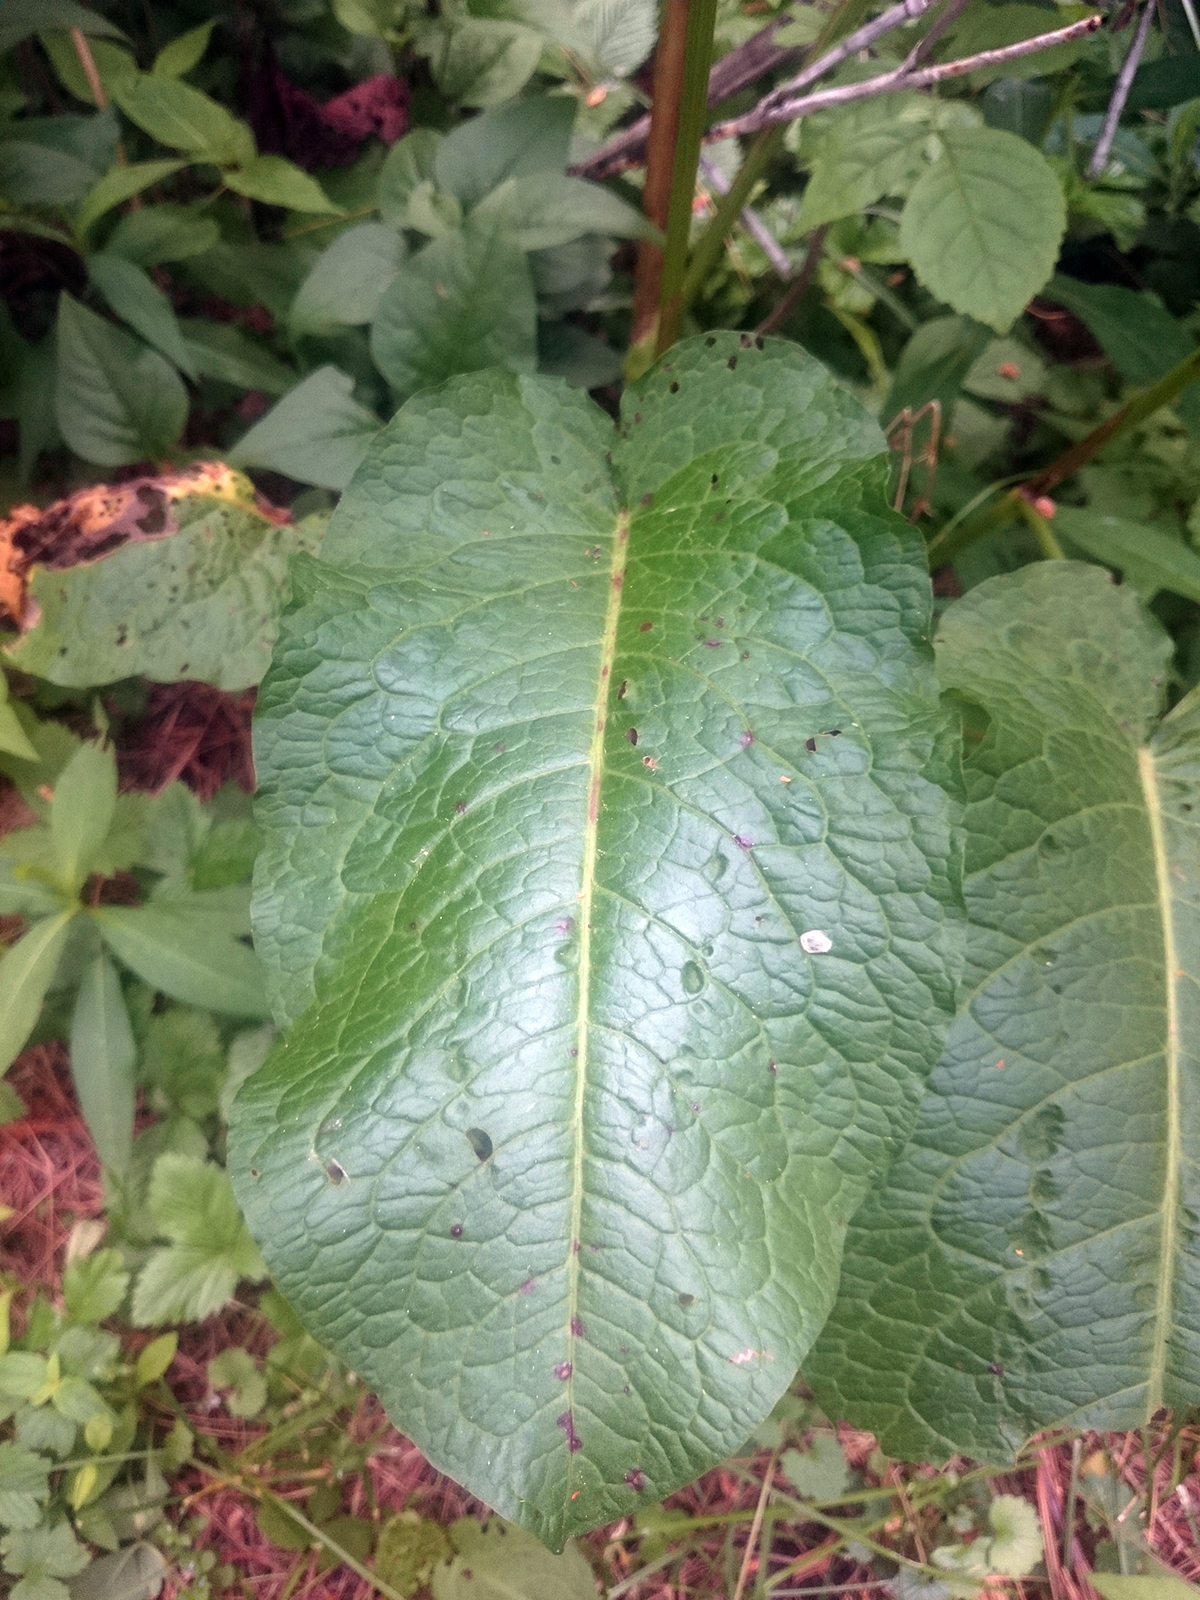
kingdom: Plantae
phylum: Tracheophyta
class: Magnoliopsida
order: Caryophyllales
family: Polygonaceae
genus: Rumex
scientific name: Rumex obtusifolius
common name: Bitter dock
